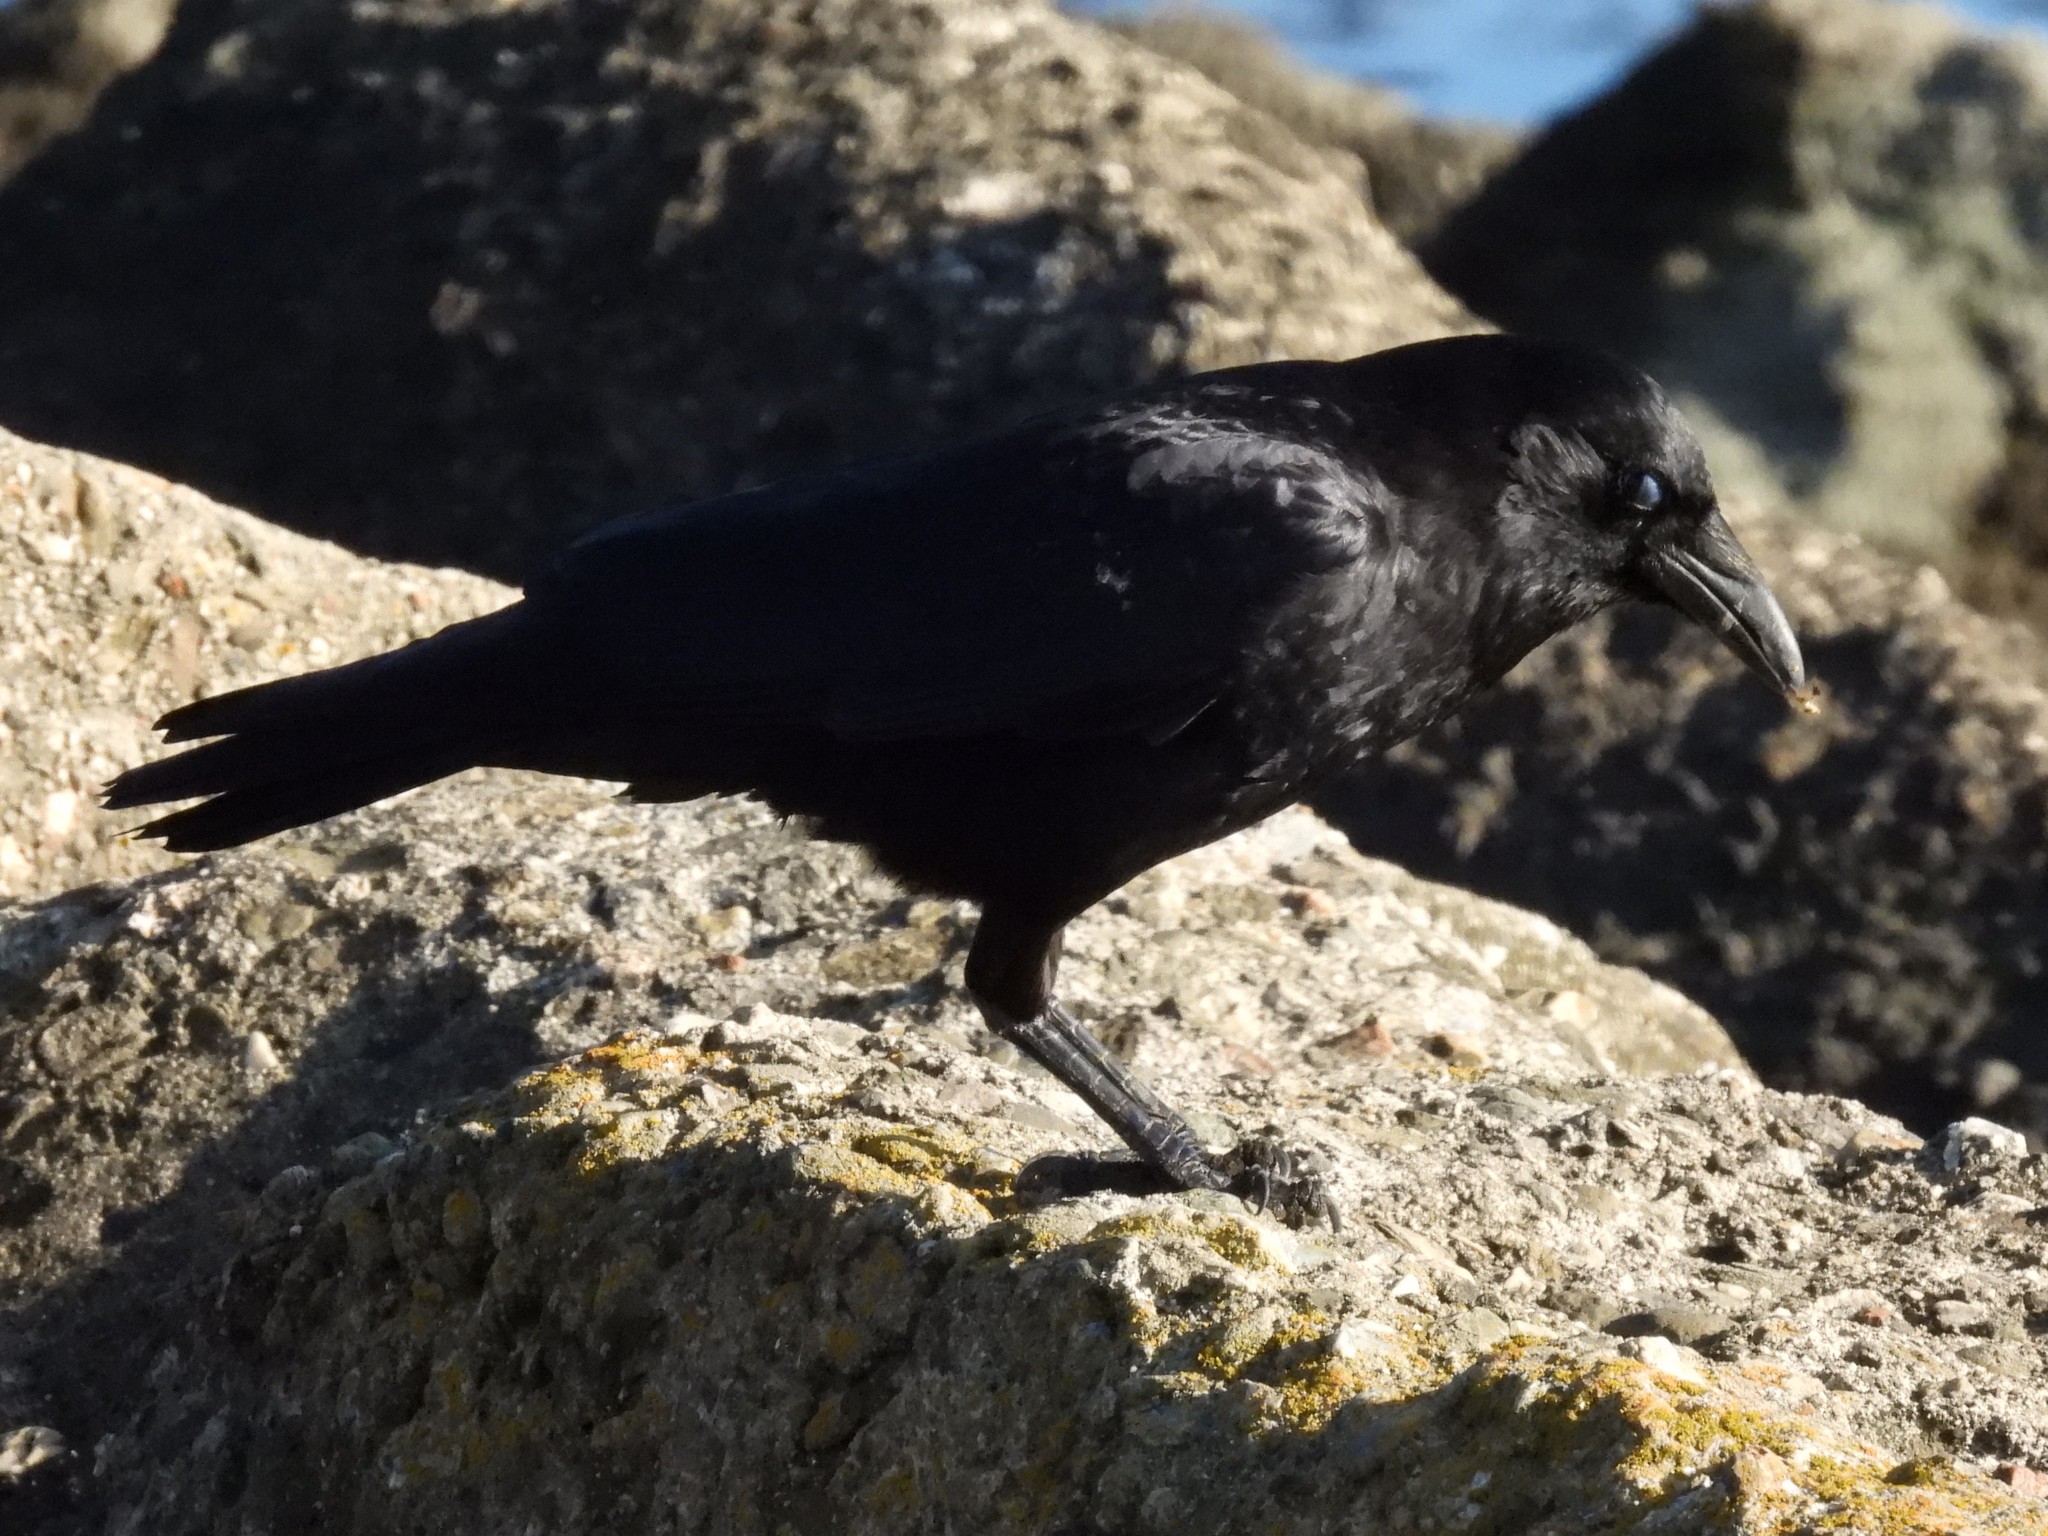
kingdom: Animalia
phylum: Chordata
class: Aves
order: Passeriformes
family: Corvidae
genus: Corvus
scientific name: Corvus brachyrhynchos
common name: American crow
